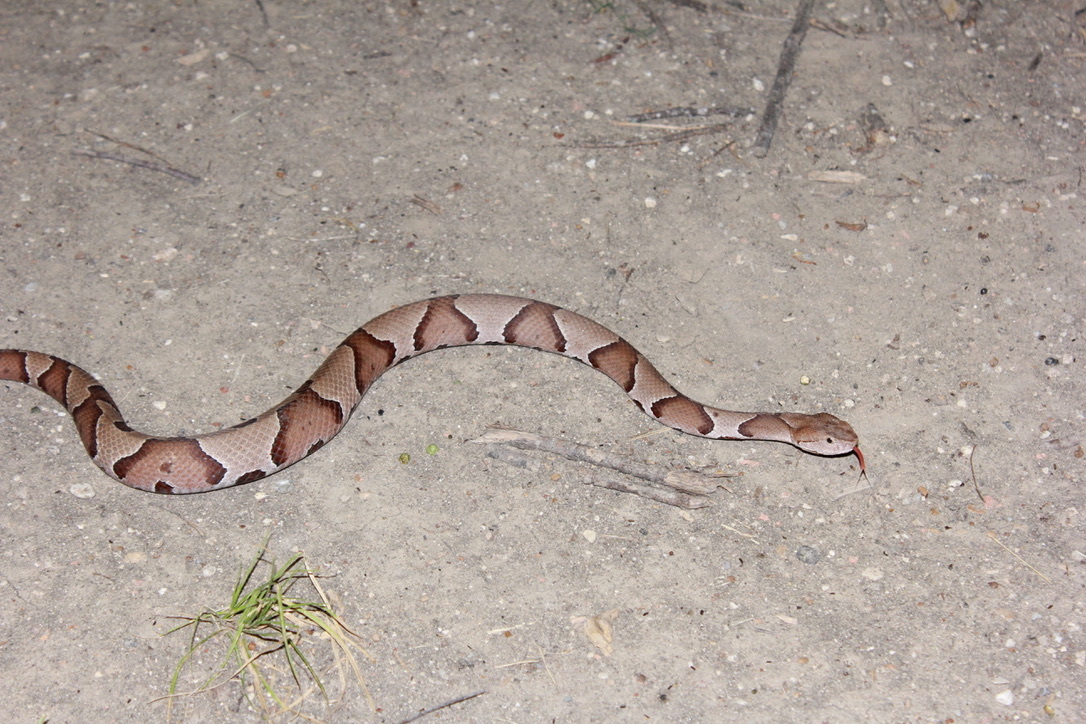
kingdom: Animalia
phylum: Chordata
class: Squamata
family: Viperidae
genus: Agkistrodon
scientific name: Agkistrodon laticinctus
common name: Broad-banded copperhead
